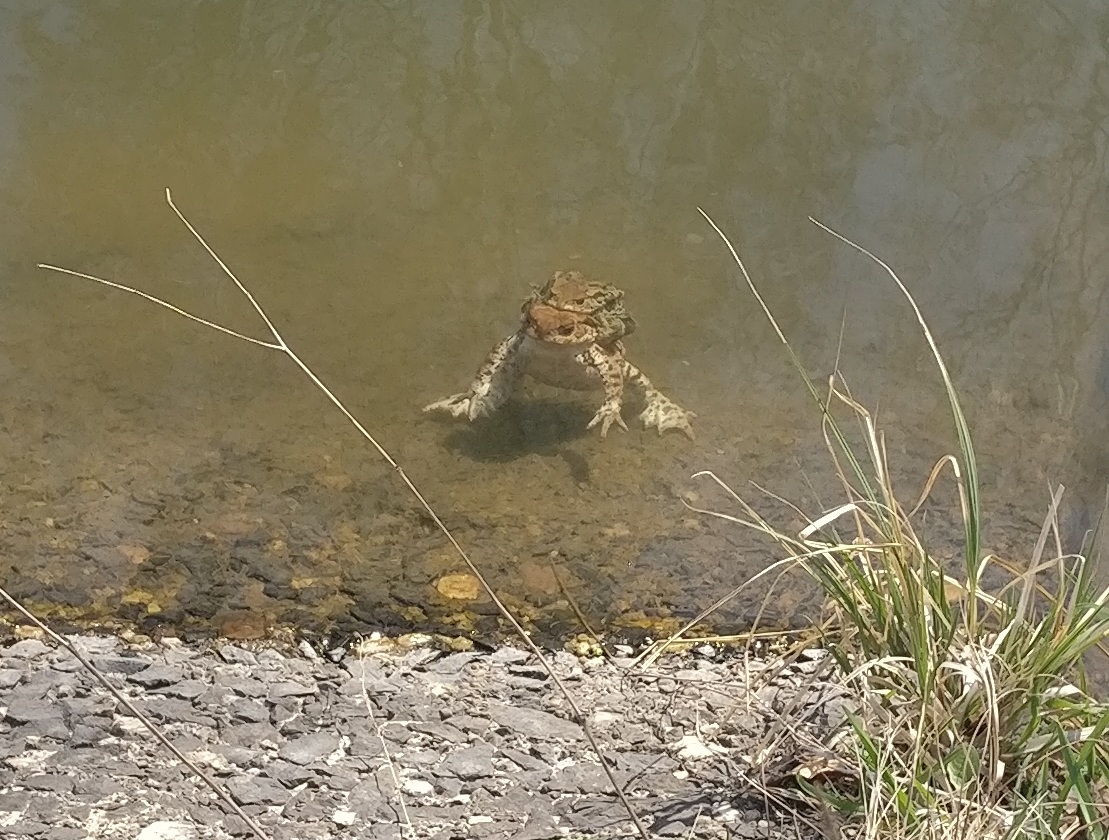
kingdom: Animalia
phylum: Chordata
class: Amphibia
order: Anura
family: Bufonidae
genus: Bufo
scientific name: Bufo bufo
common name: Common toad
